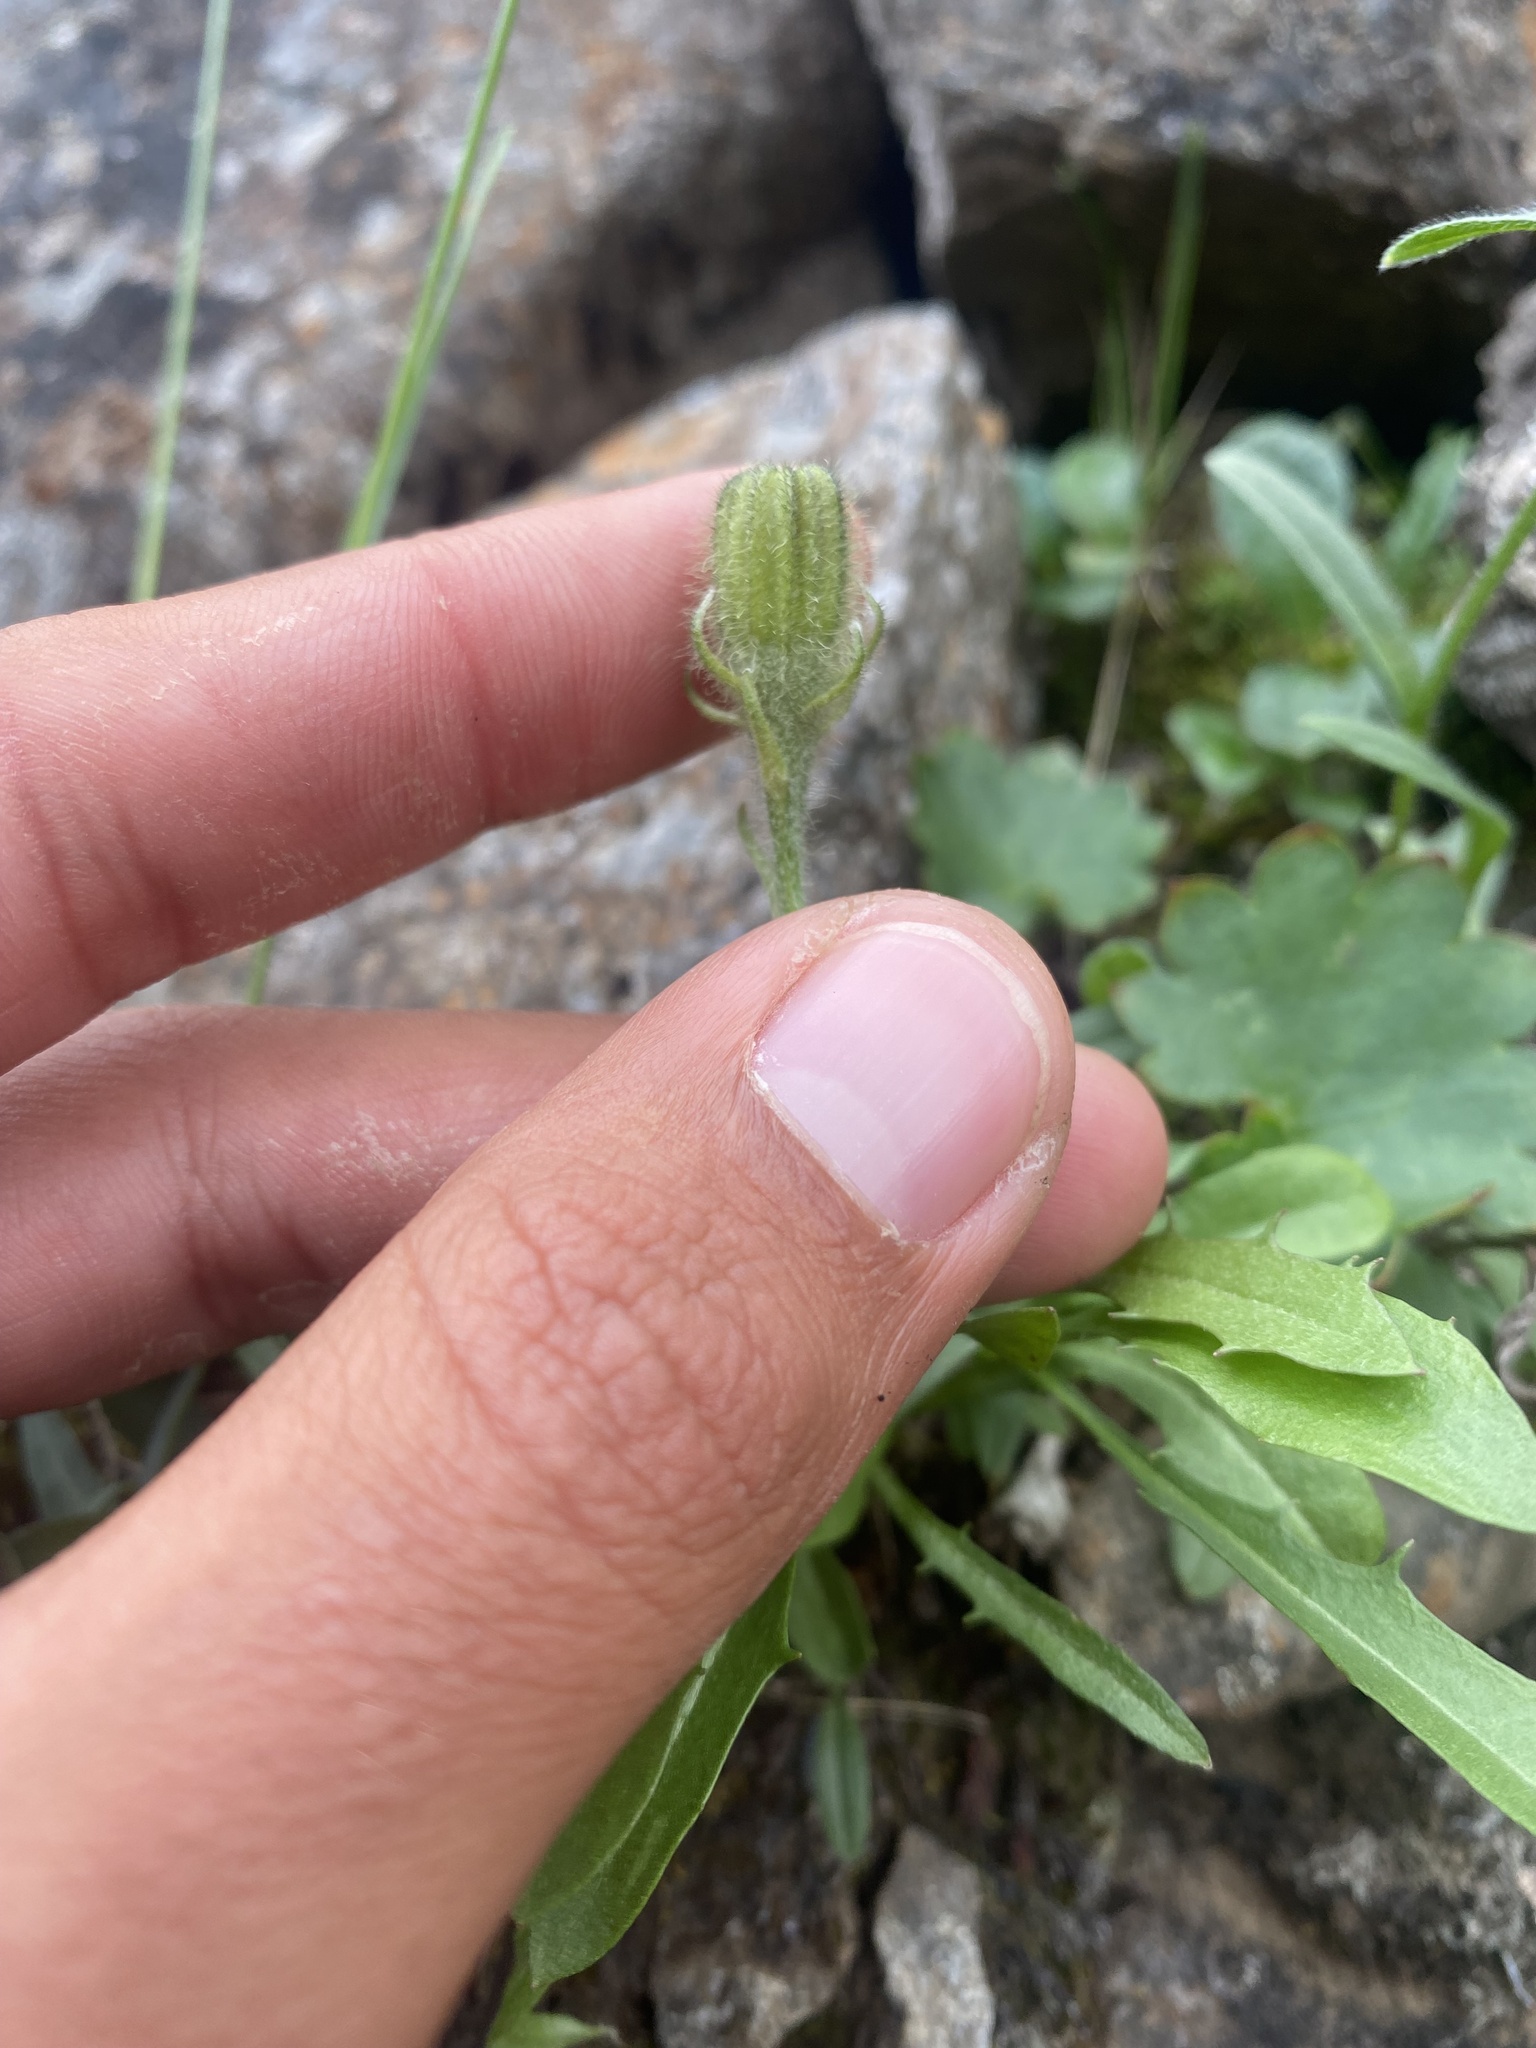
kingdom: Plantae
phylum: Tracheophyta
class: Magnoliopsida
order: Asterales
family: Asteraceae
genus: Crepis
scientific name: Crepis chrysantha
